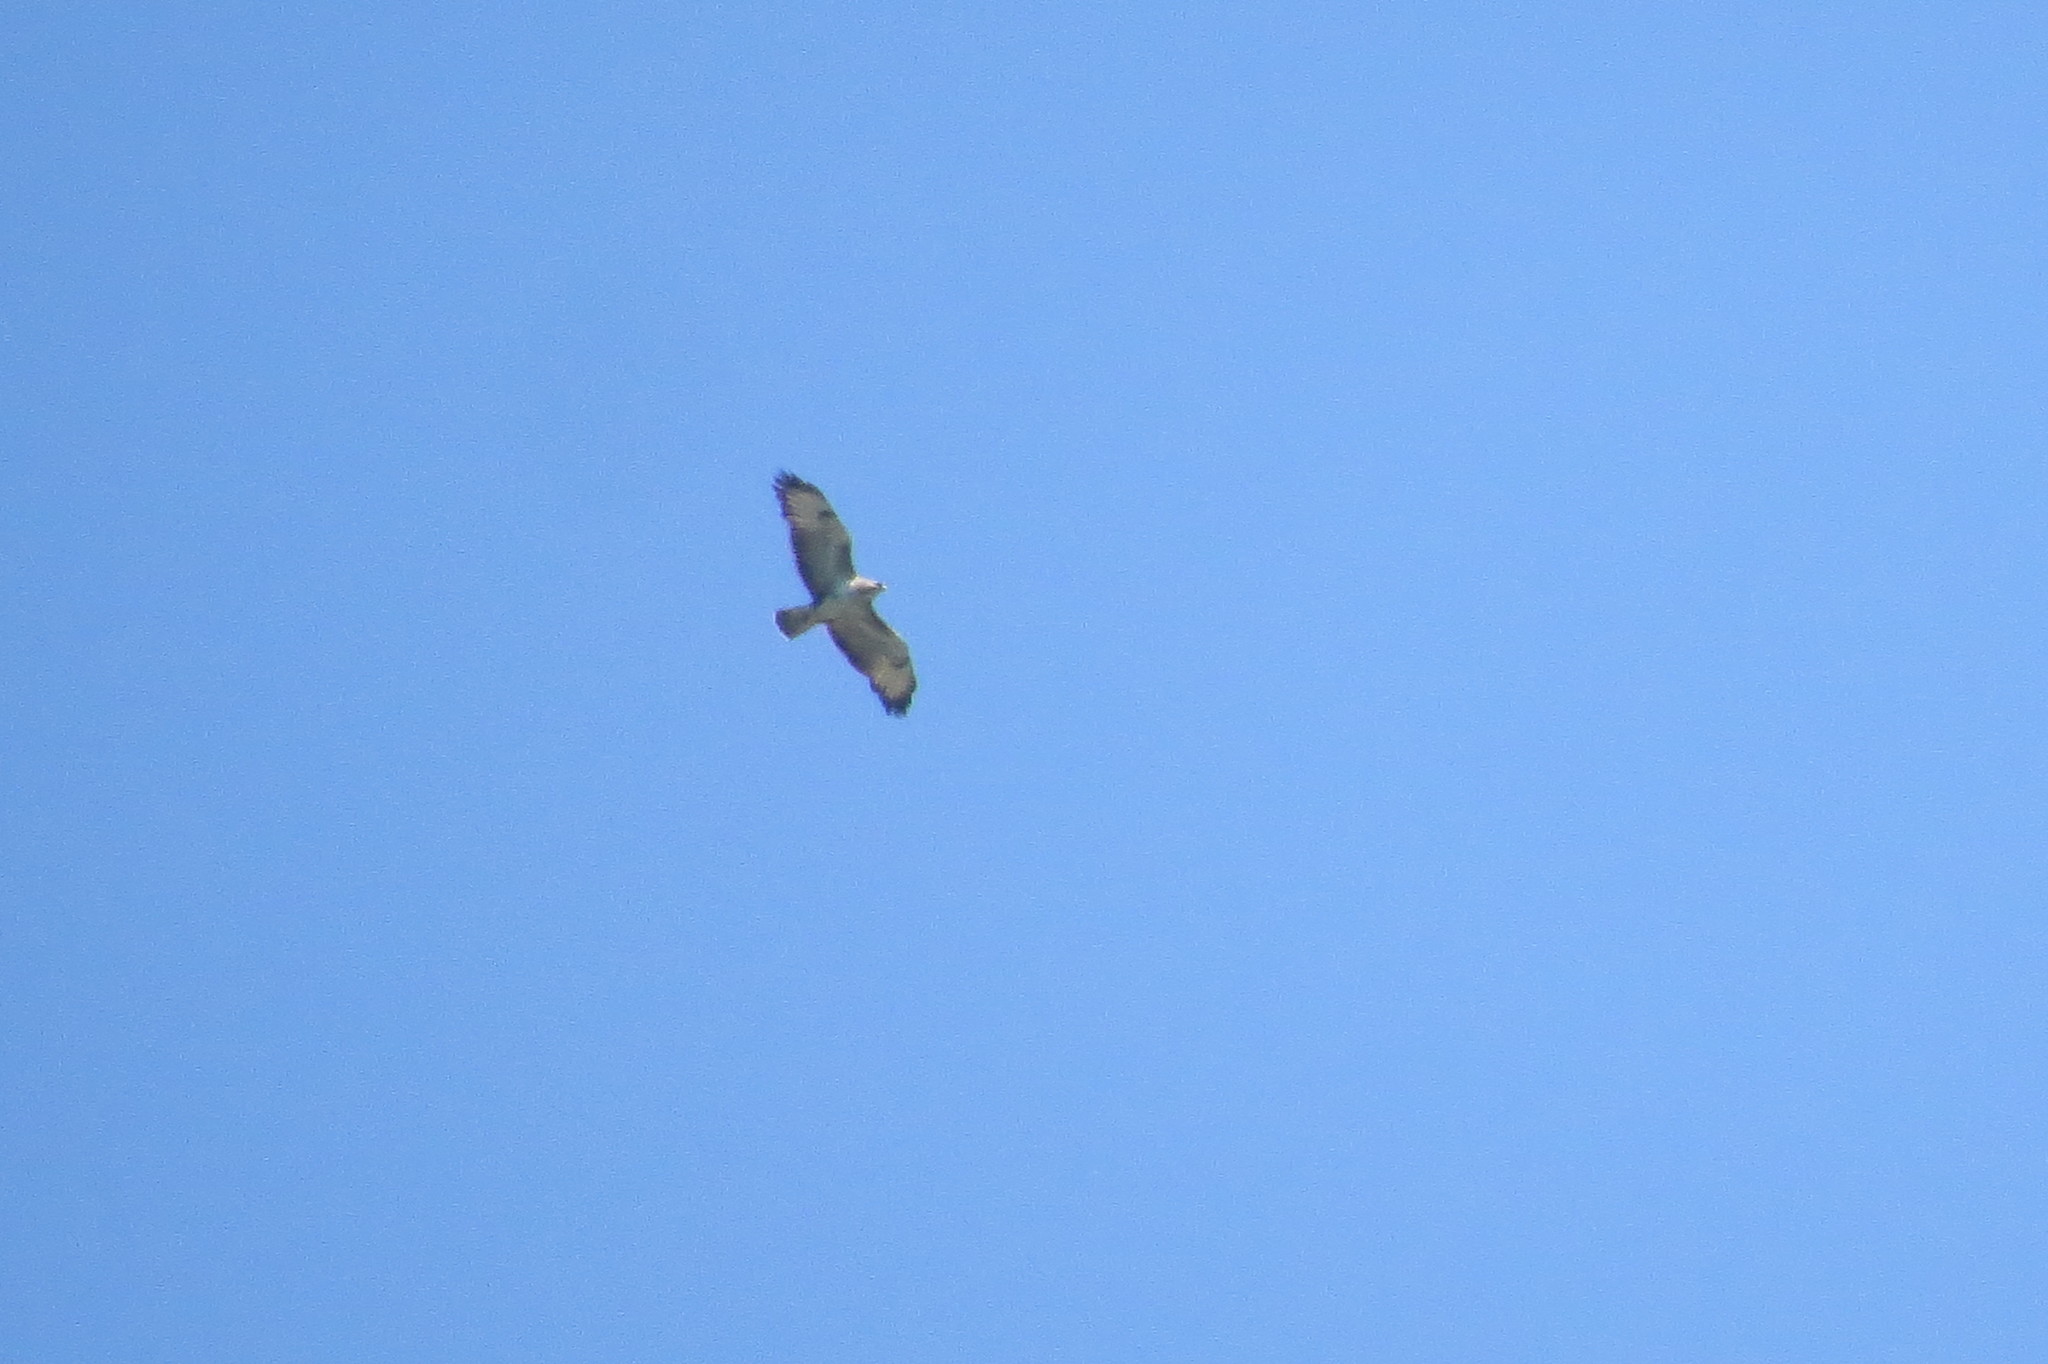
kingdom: Animalia
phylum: Chordata
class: Aves
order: Accipitriformes
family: Accipitridae
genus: Buteo
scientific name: Buteo buteo
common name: Common buzzard
